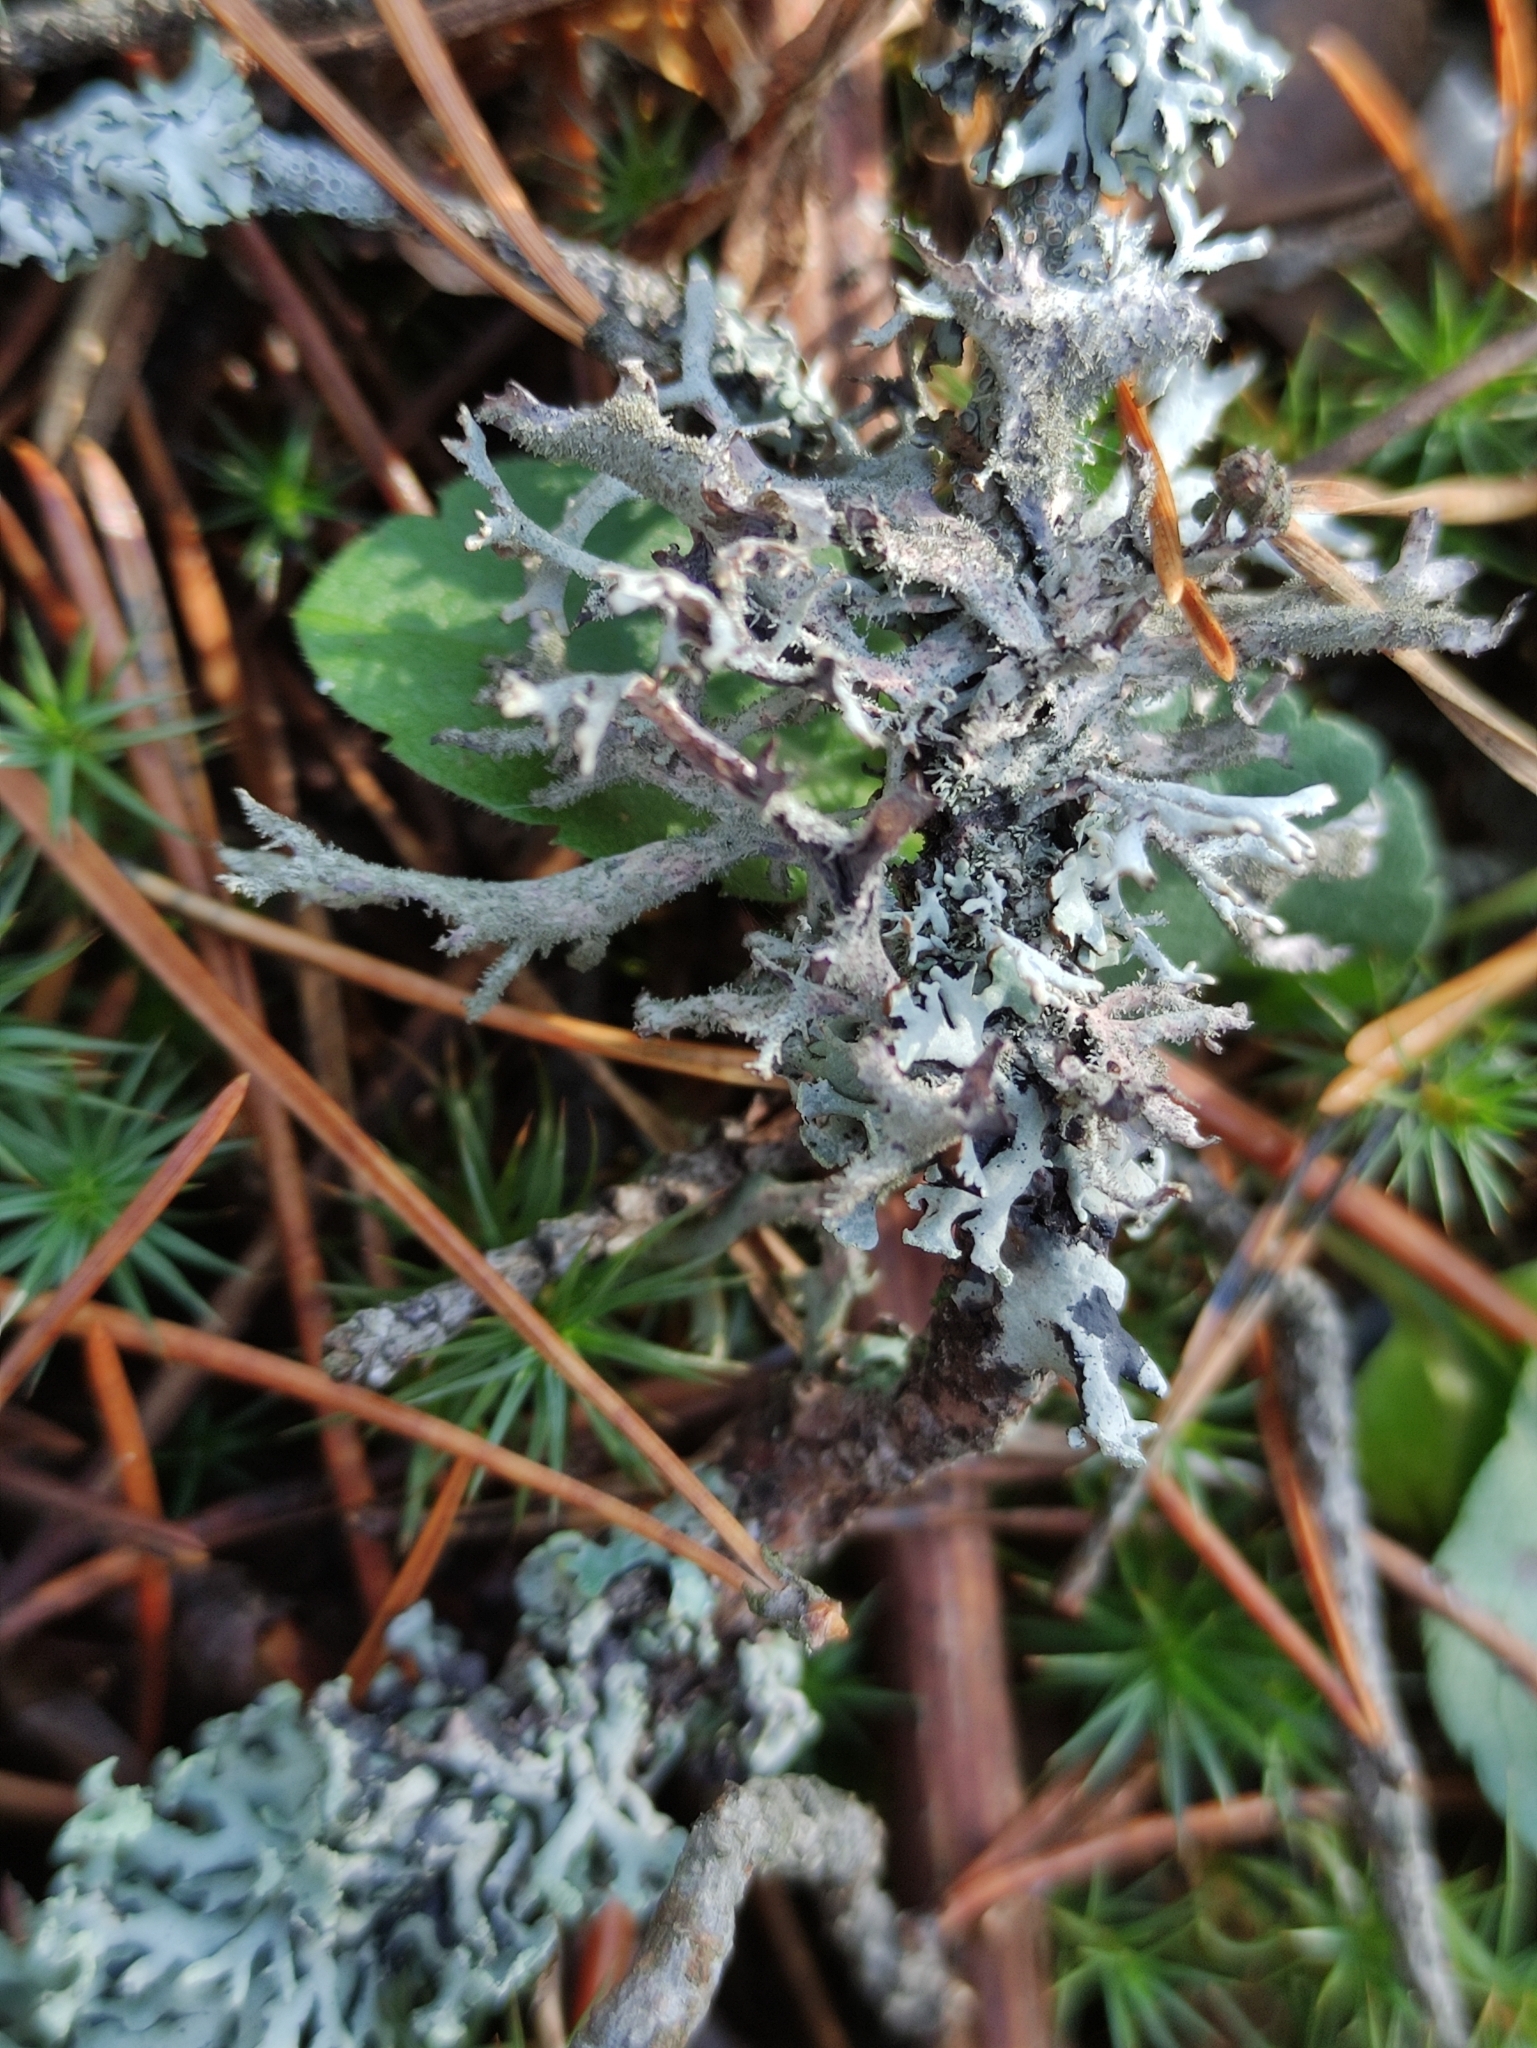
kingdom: Fungi
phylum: Ascomycota
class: Lecanoromycetes
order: Lecanorales
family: Parmeliaceae
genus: Pseudevernia
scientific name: Pseudevernia furfuracea
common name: Tree moss
